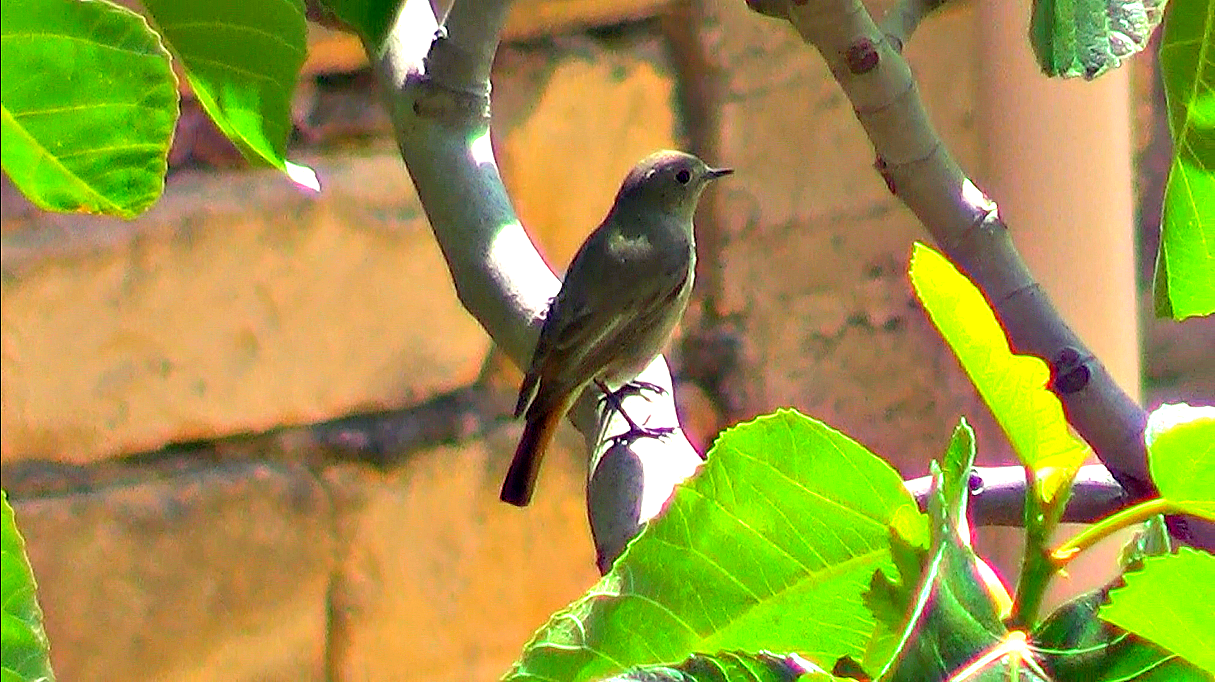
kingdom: Animalia
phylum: Chordata
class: Aves
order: Passeriformes
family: Muscicapidae
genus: Phoenicurus
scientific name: Phoenicurus ochruros
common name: Black redstart
